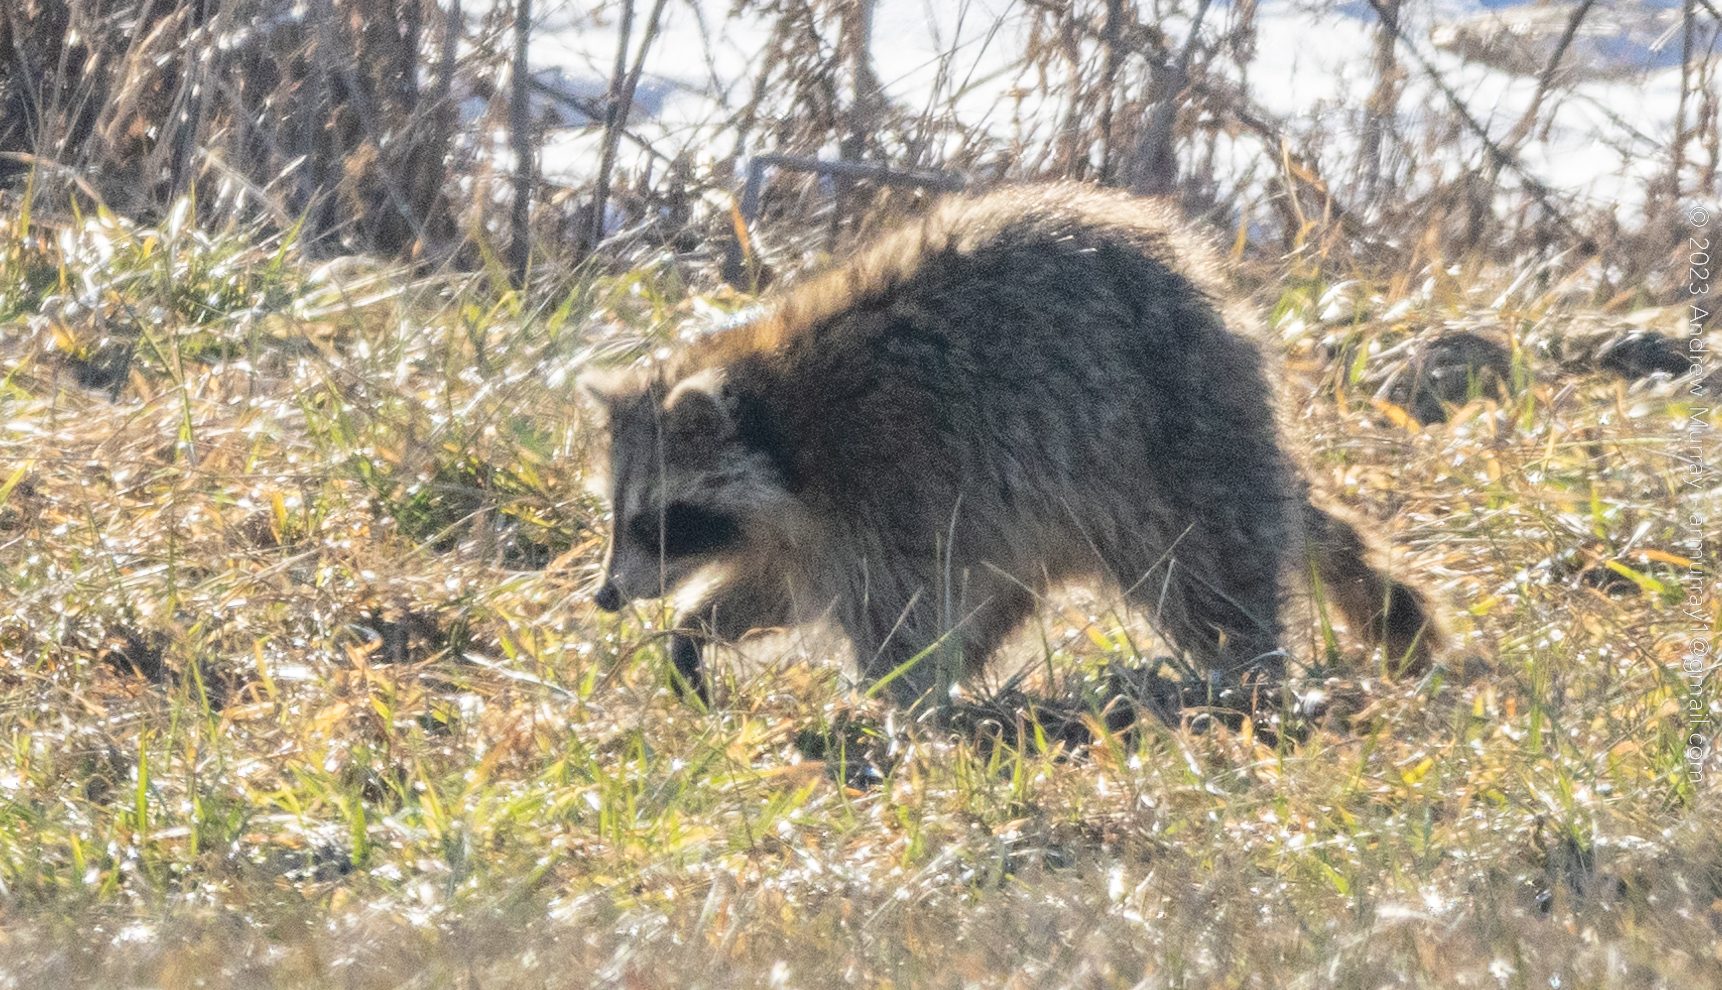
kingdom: Animalia
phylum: Chordata
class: Mammalia
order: Carnivora
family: Procyonidae
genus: Procyon
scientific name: Procyon lotor
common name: Raccoon
